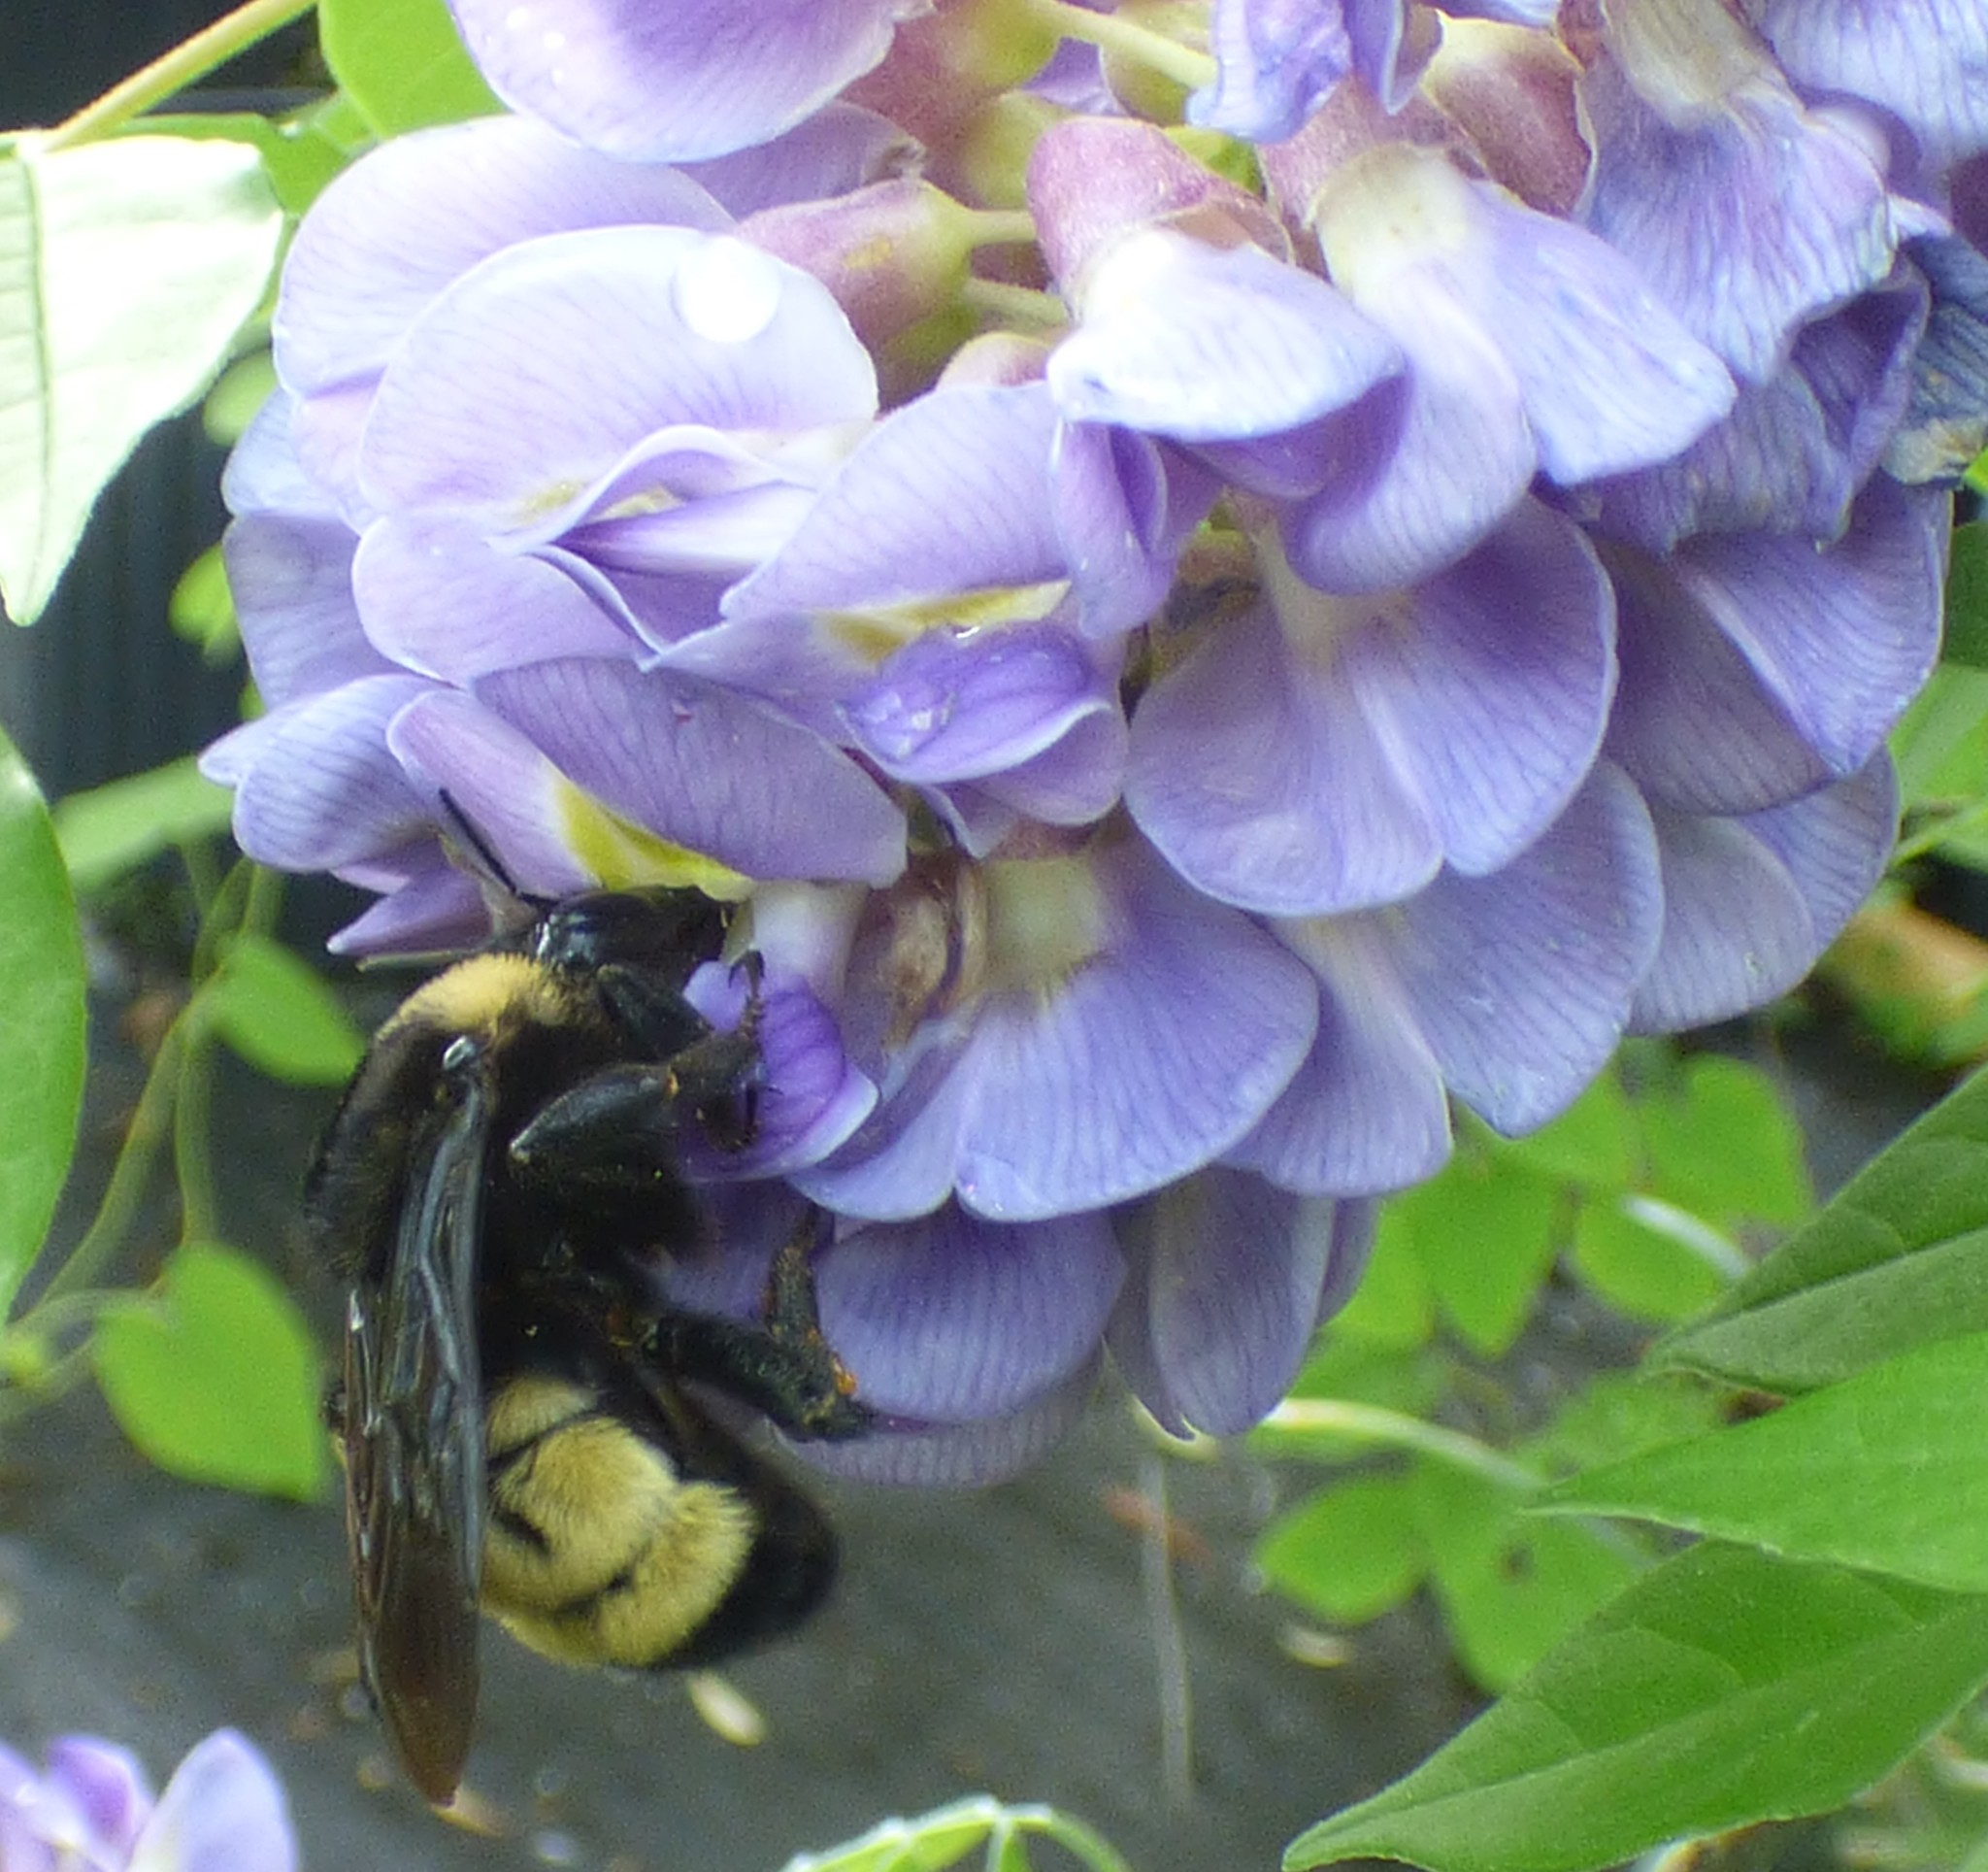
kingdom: Animalia
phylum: Arthropoda
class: Insecta
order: Hymenoptera
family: Apidae
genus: Bombus
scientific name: Bombus pensylvanicus
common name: Bumble bee
